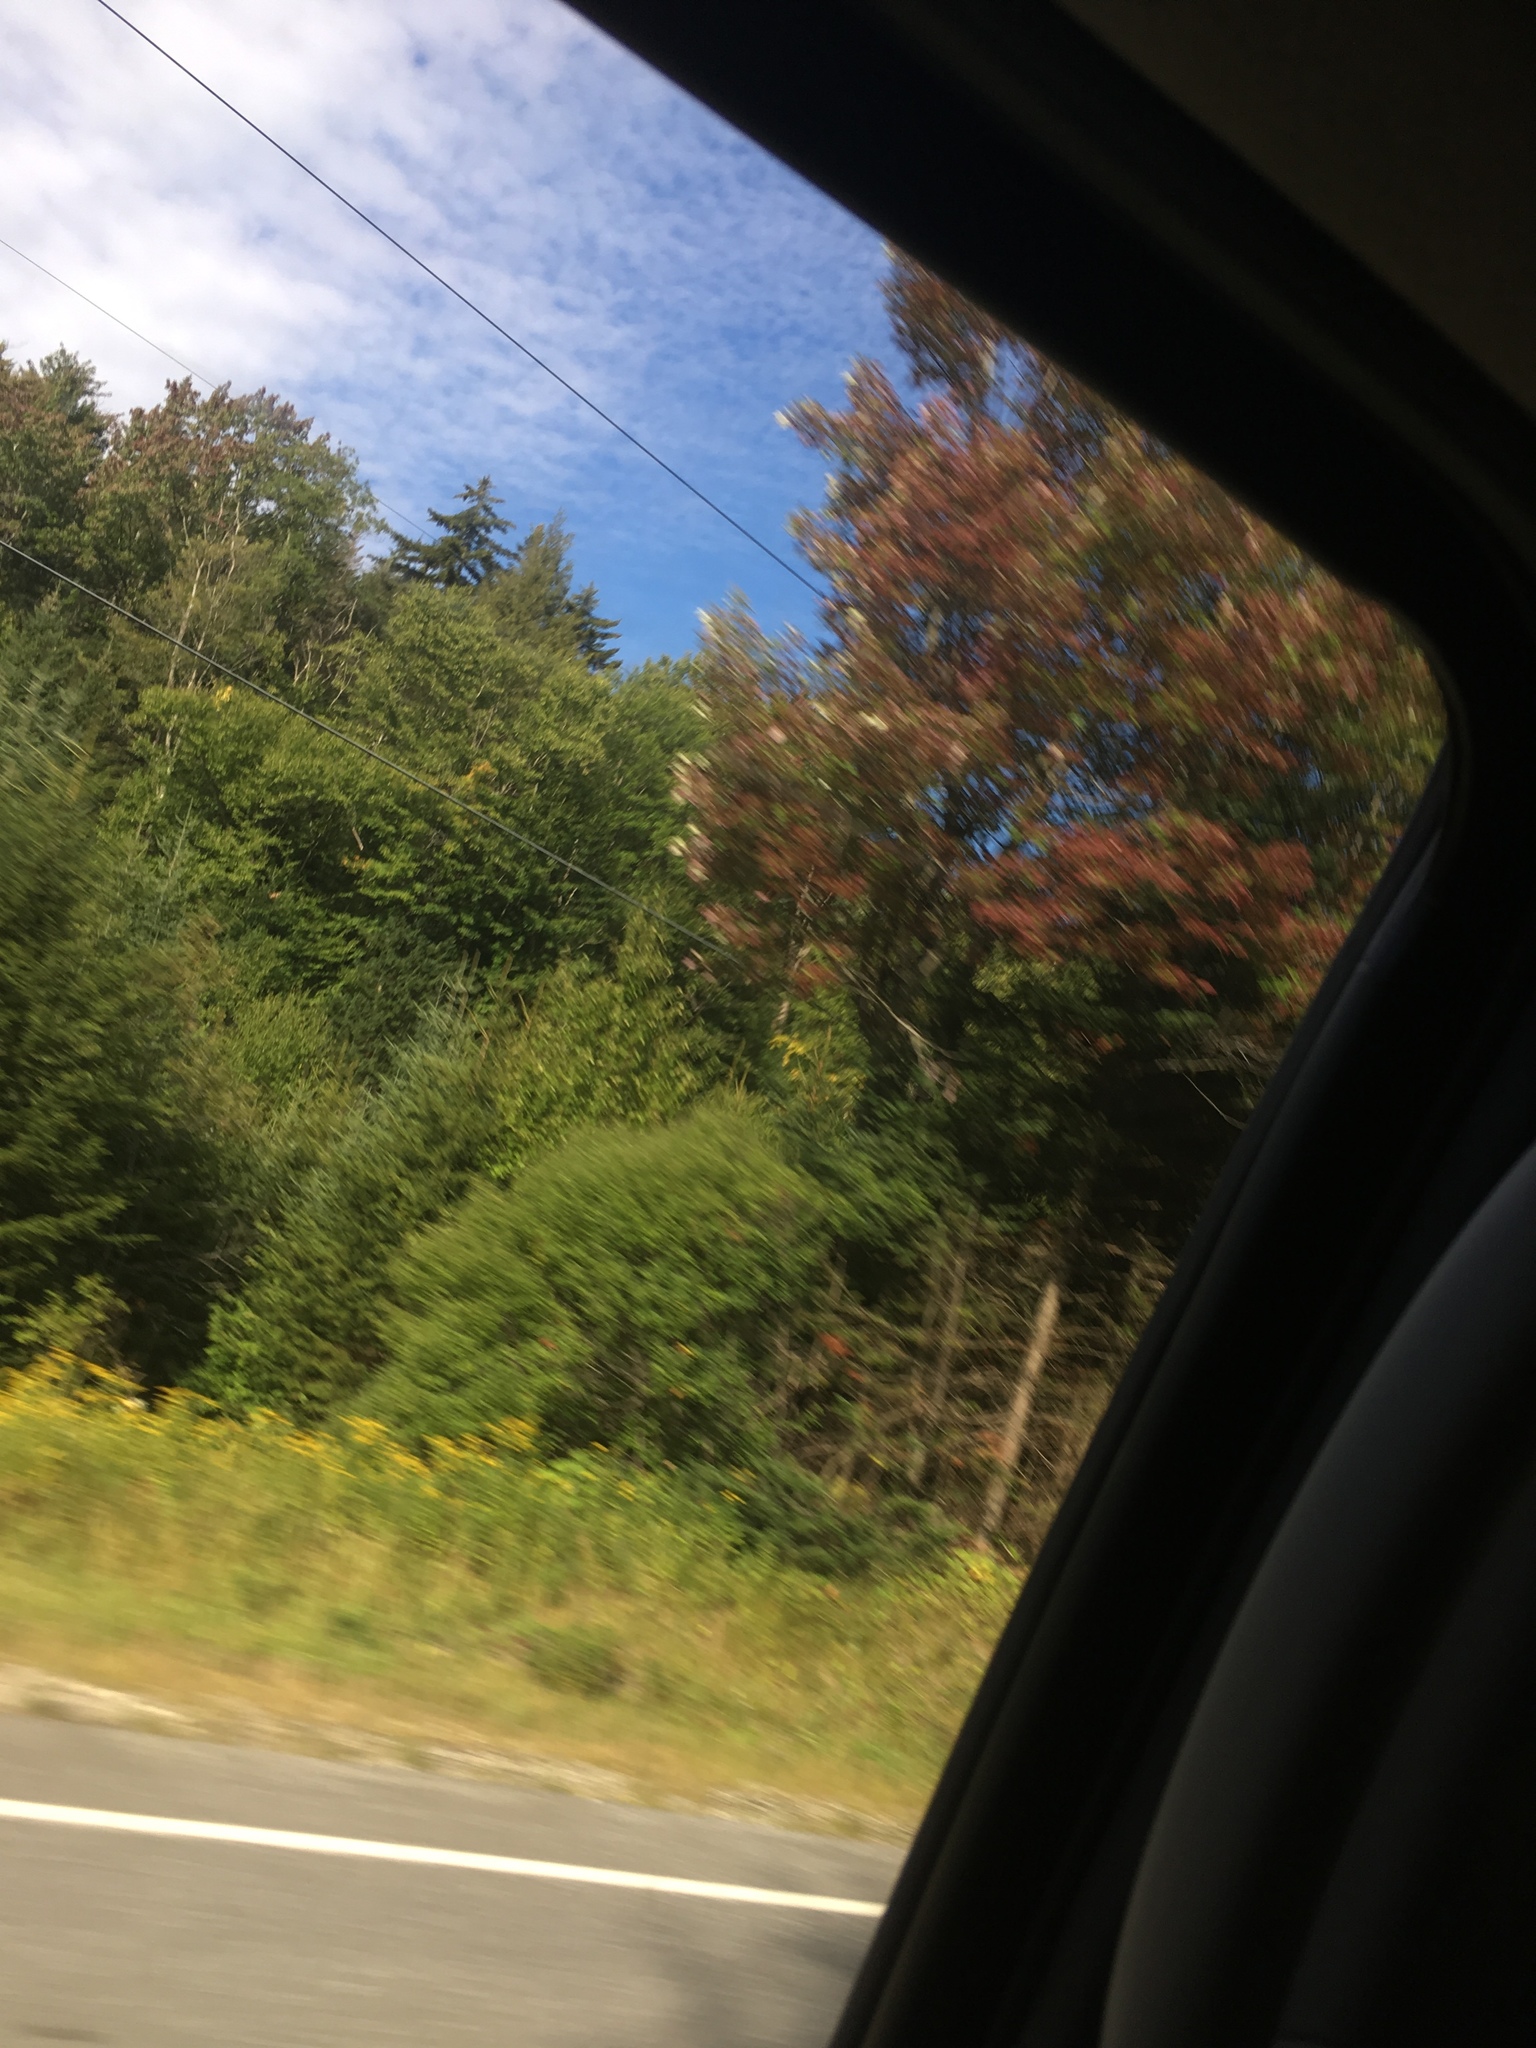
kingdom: Plantae
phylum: Tracheophyta
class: Magnoliopsida
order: Sapindales
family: Sapindaceae
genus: Acer
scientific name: Acer rubrum
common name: Red maple
